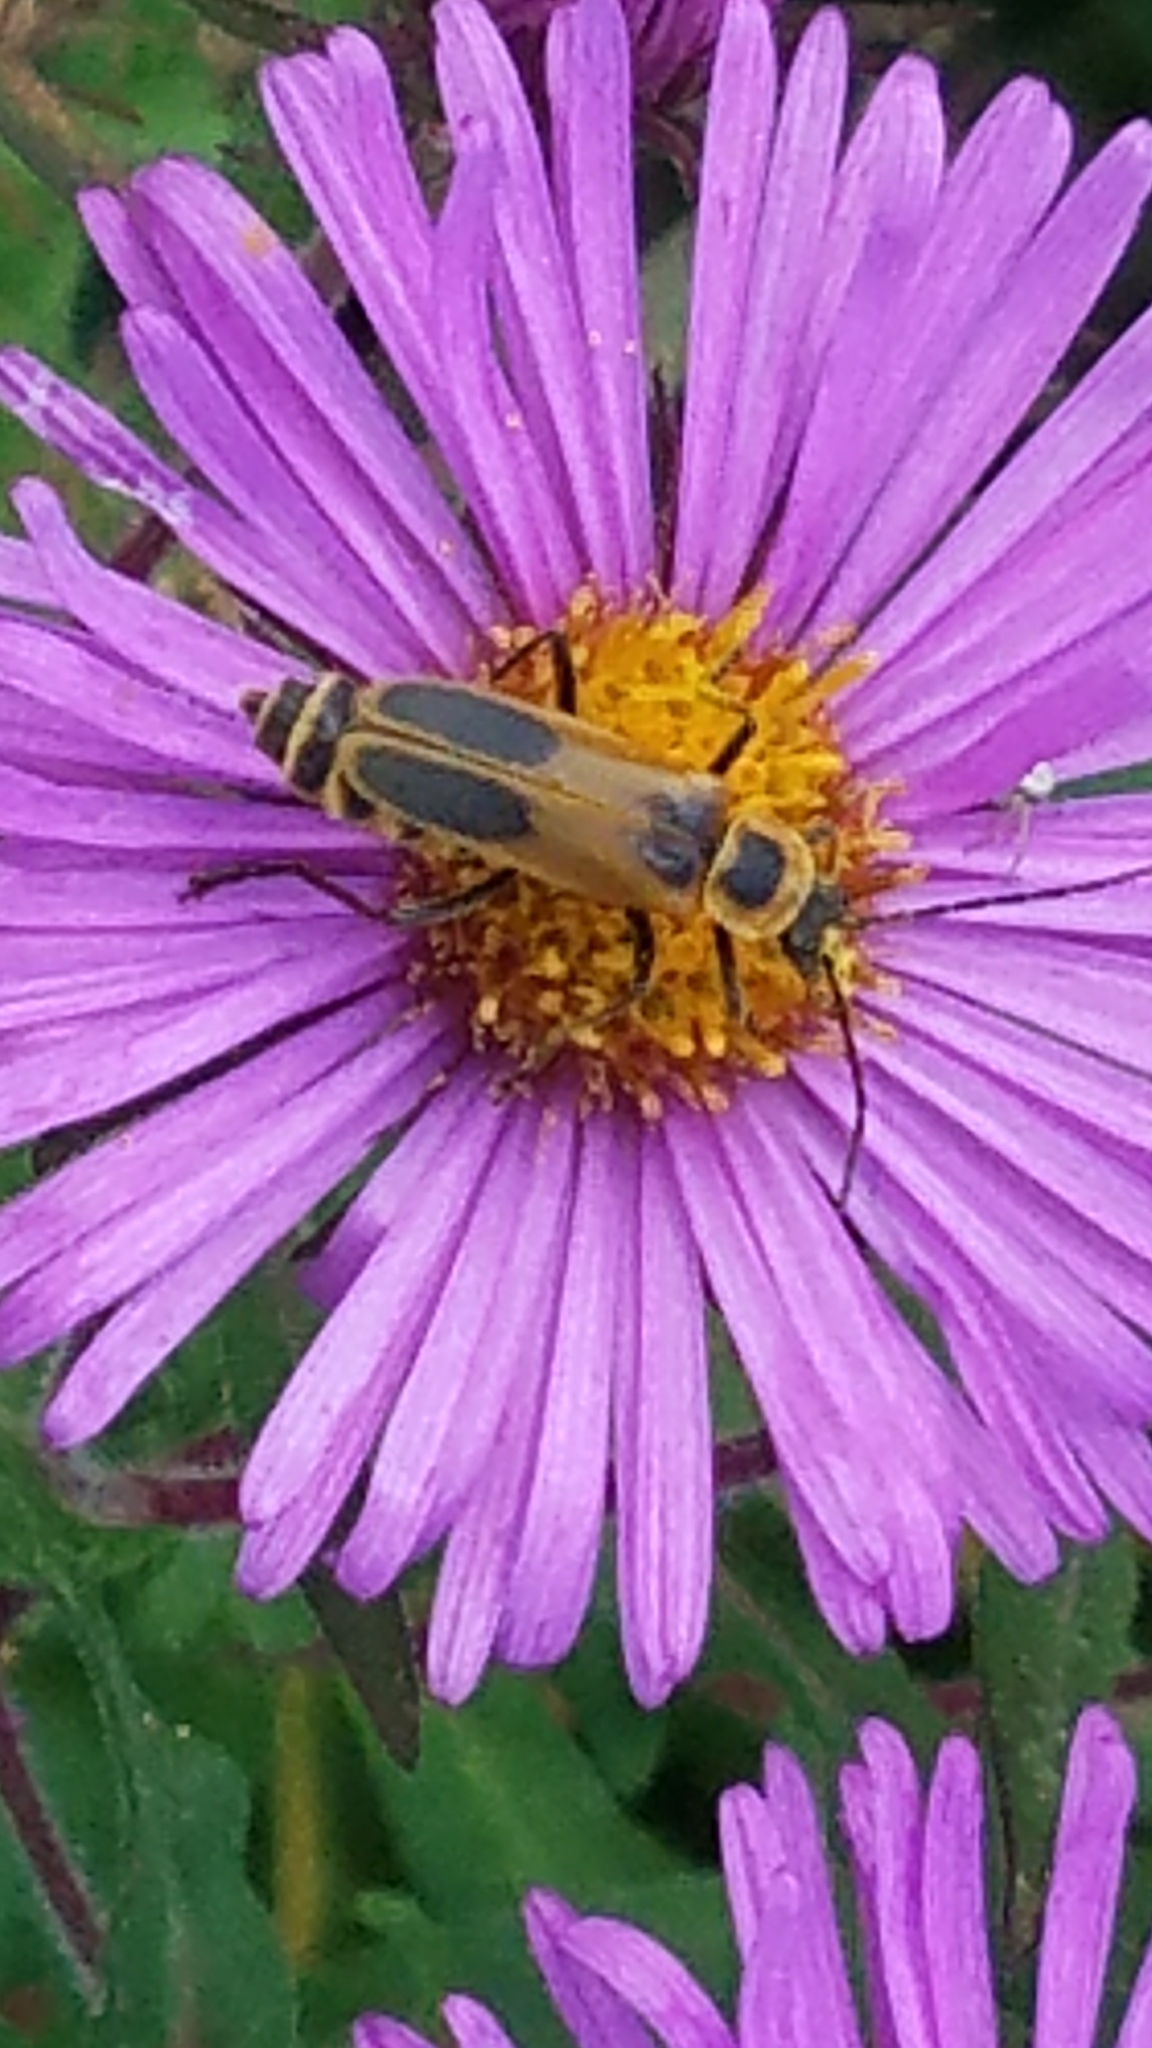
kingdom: Animalia
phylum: Arthropoda
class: Insecta
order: Coleoptera
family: Cantharidae
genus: Chauliognathus
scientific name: Chauliognathus pensylvanicus
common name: Goldenrod soldier beetle
